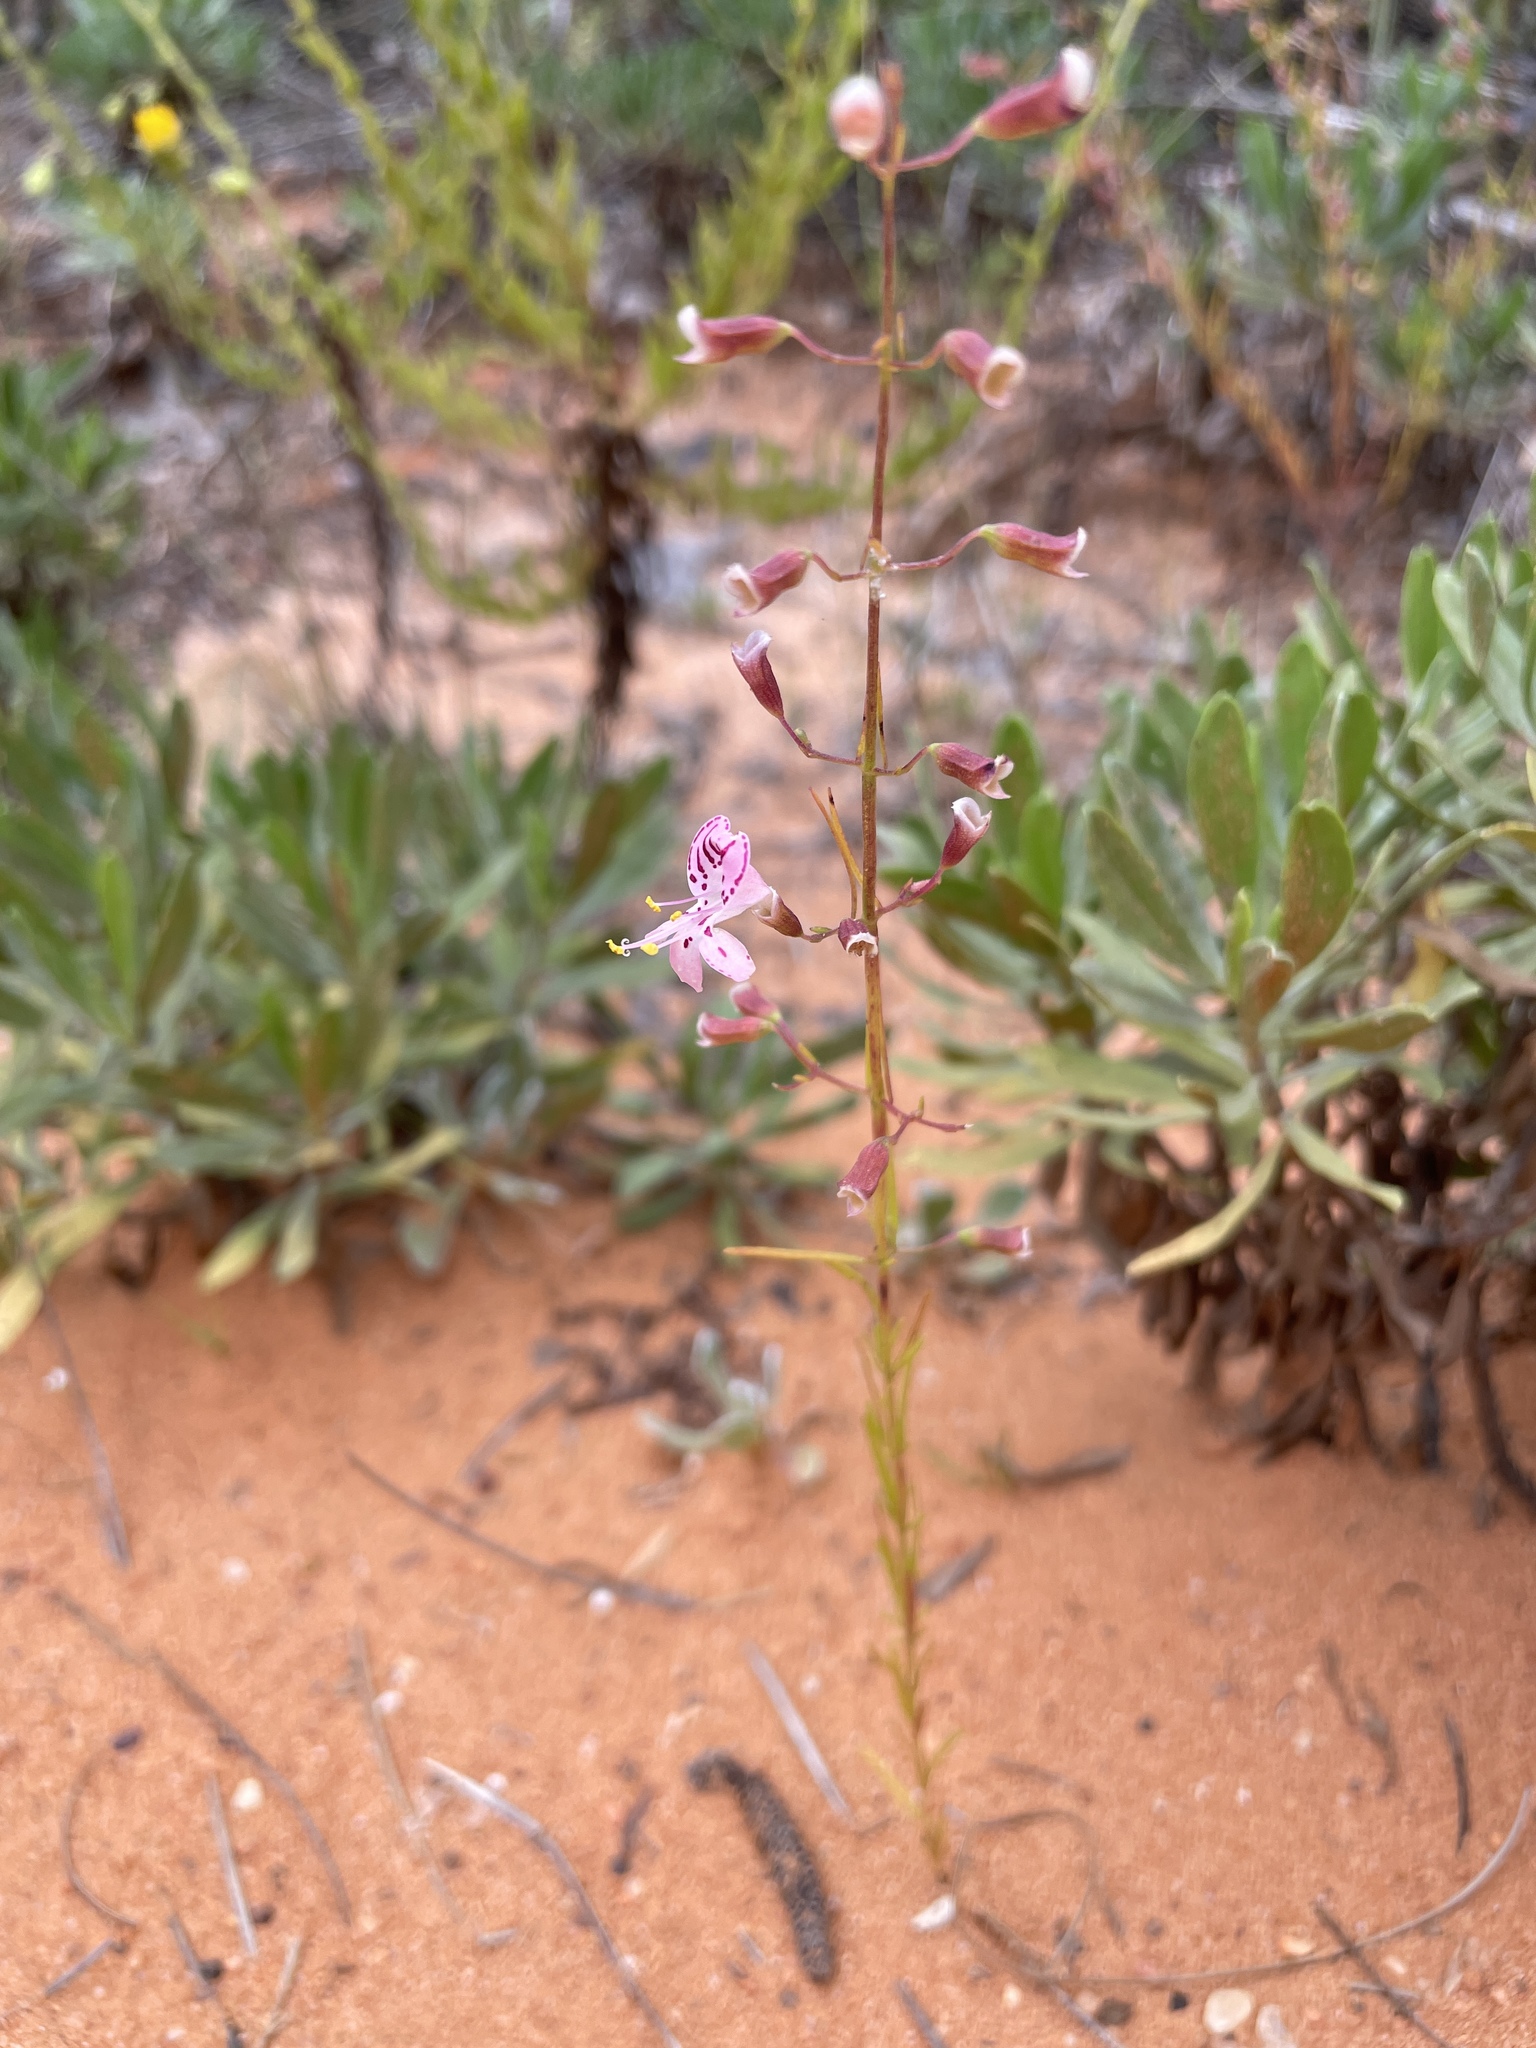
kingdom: Plantae
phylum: Tracheophyta
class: Magnoliopsida
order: Lamiales
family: Lamiaceae
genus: Dicerandra
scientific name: Dicerandra fumella
